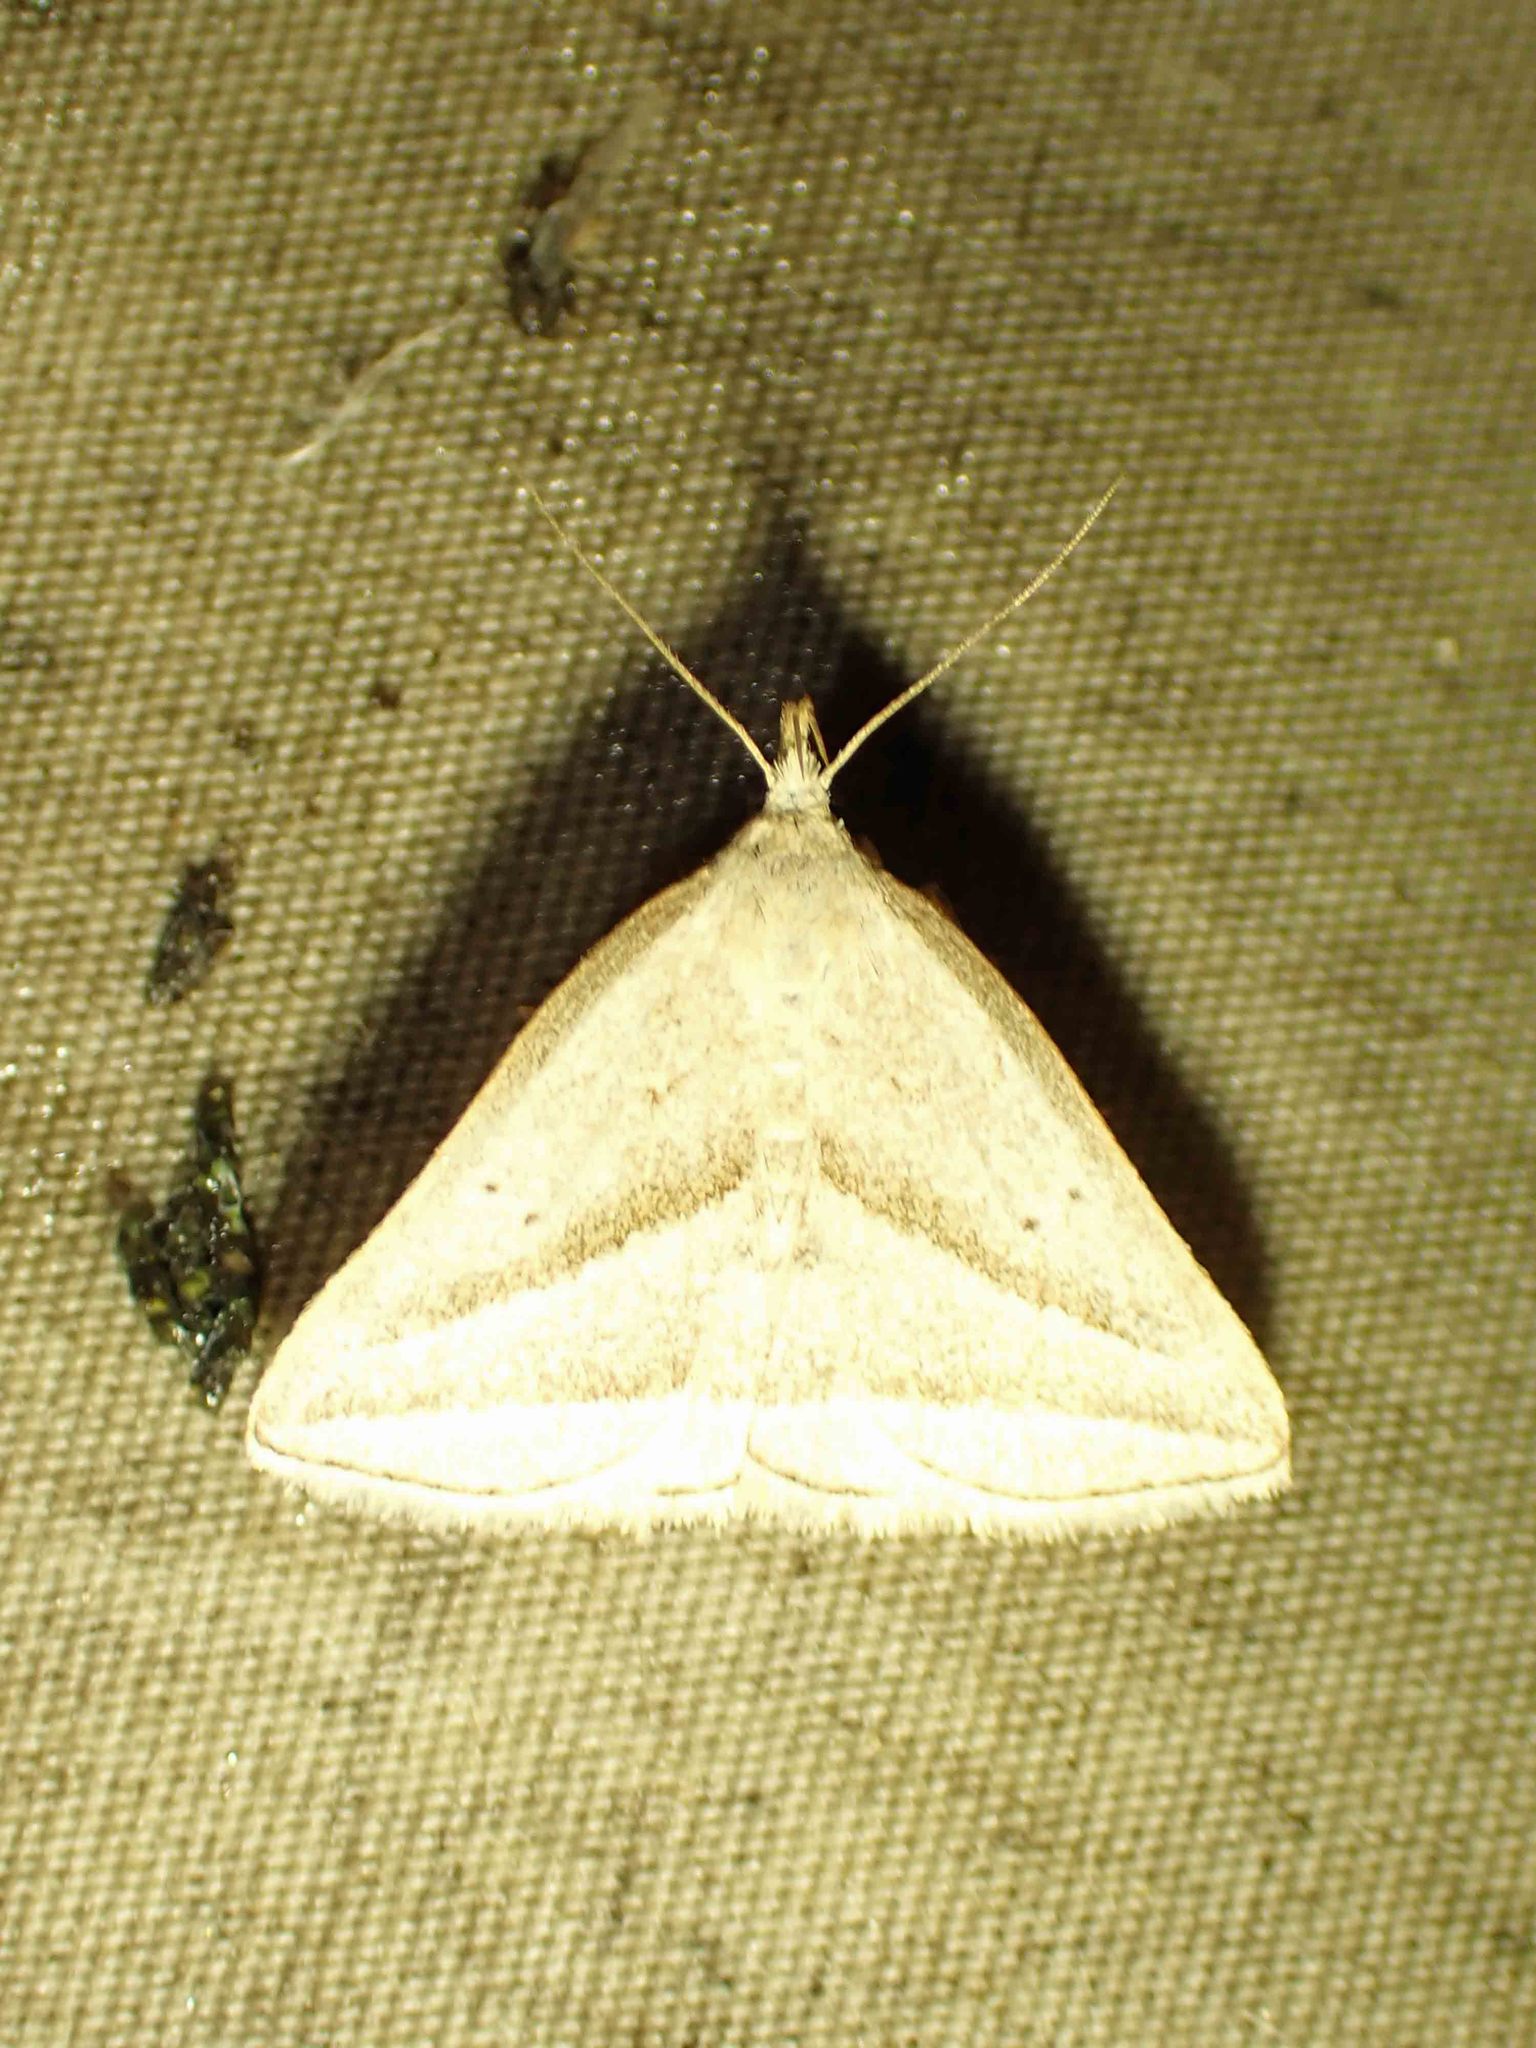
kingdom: Animalia
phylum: Arthropoda
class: Insecta
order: Lepidoptera
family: Erebidae
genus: Macrochilo
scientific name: Macrochilo absorptalis
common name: Slant-lined owlet
